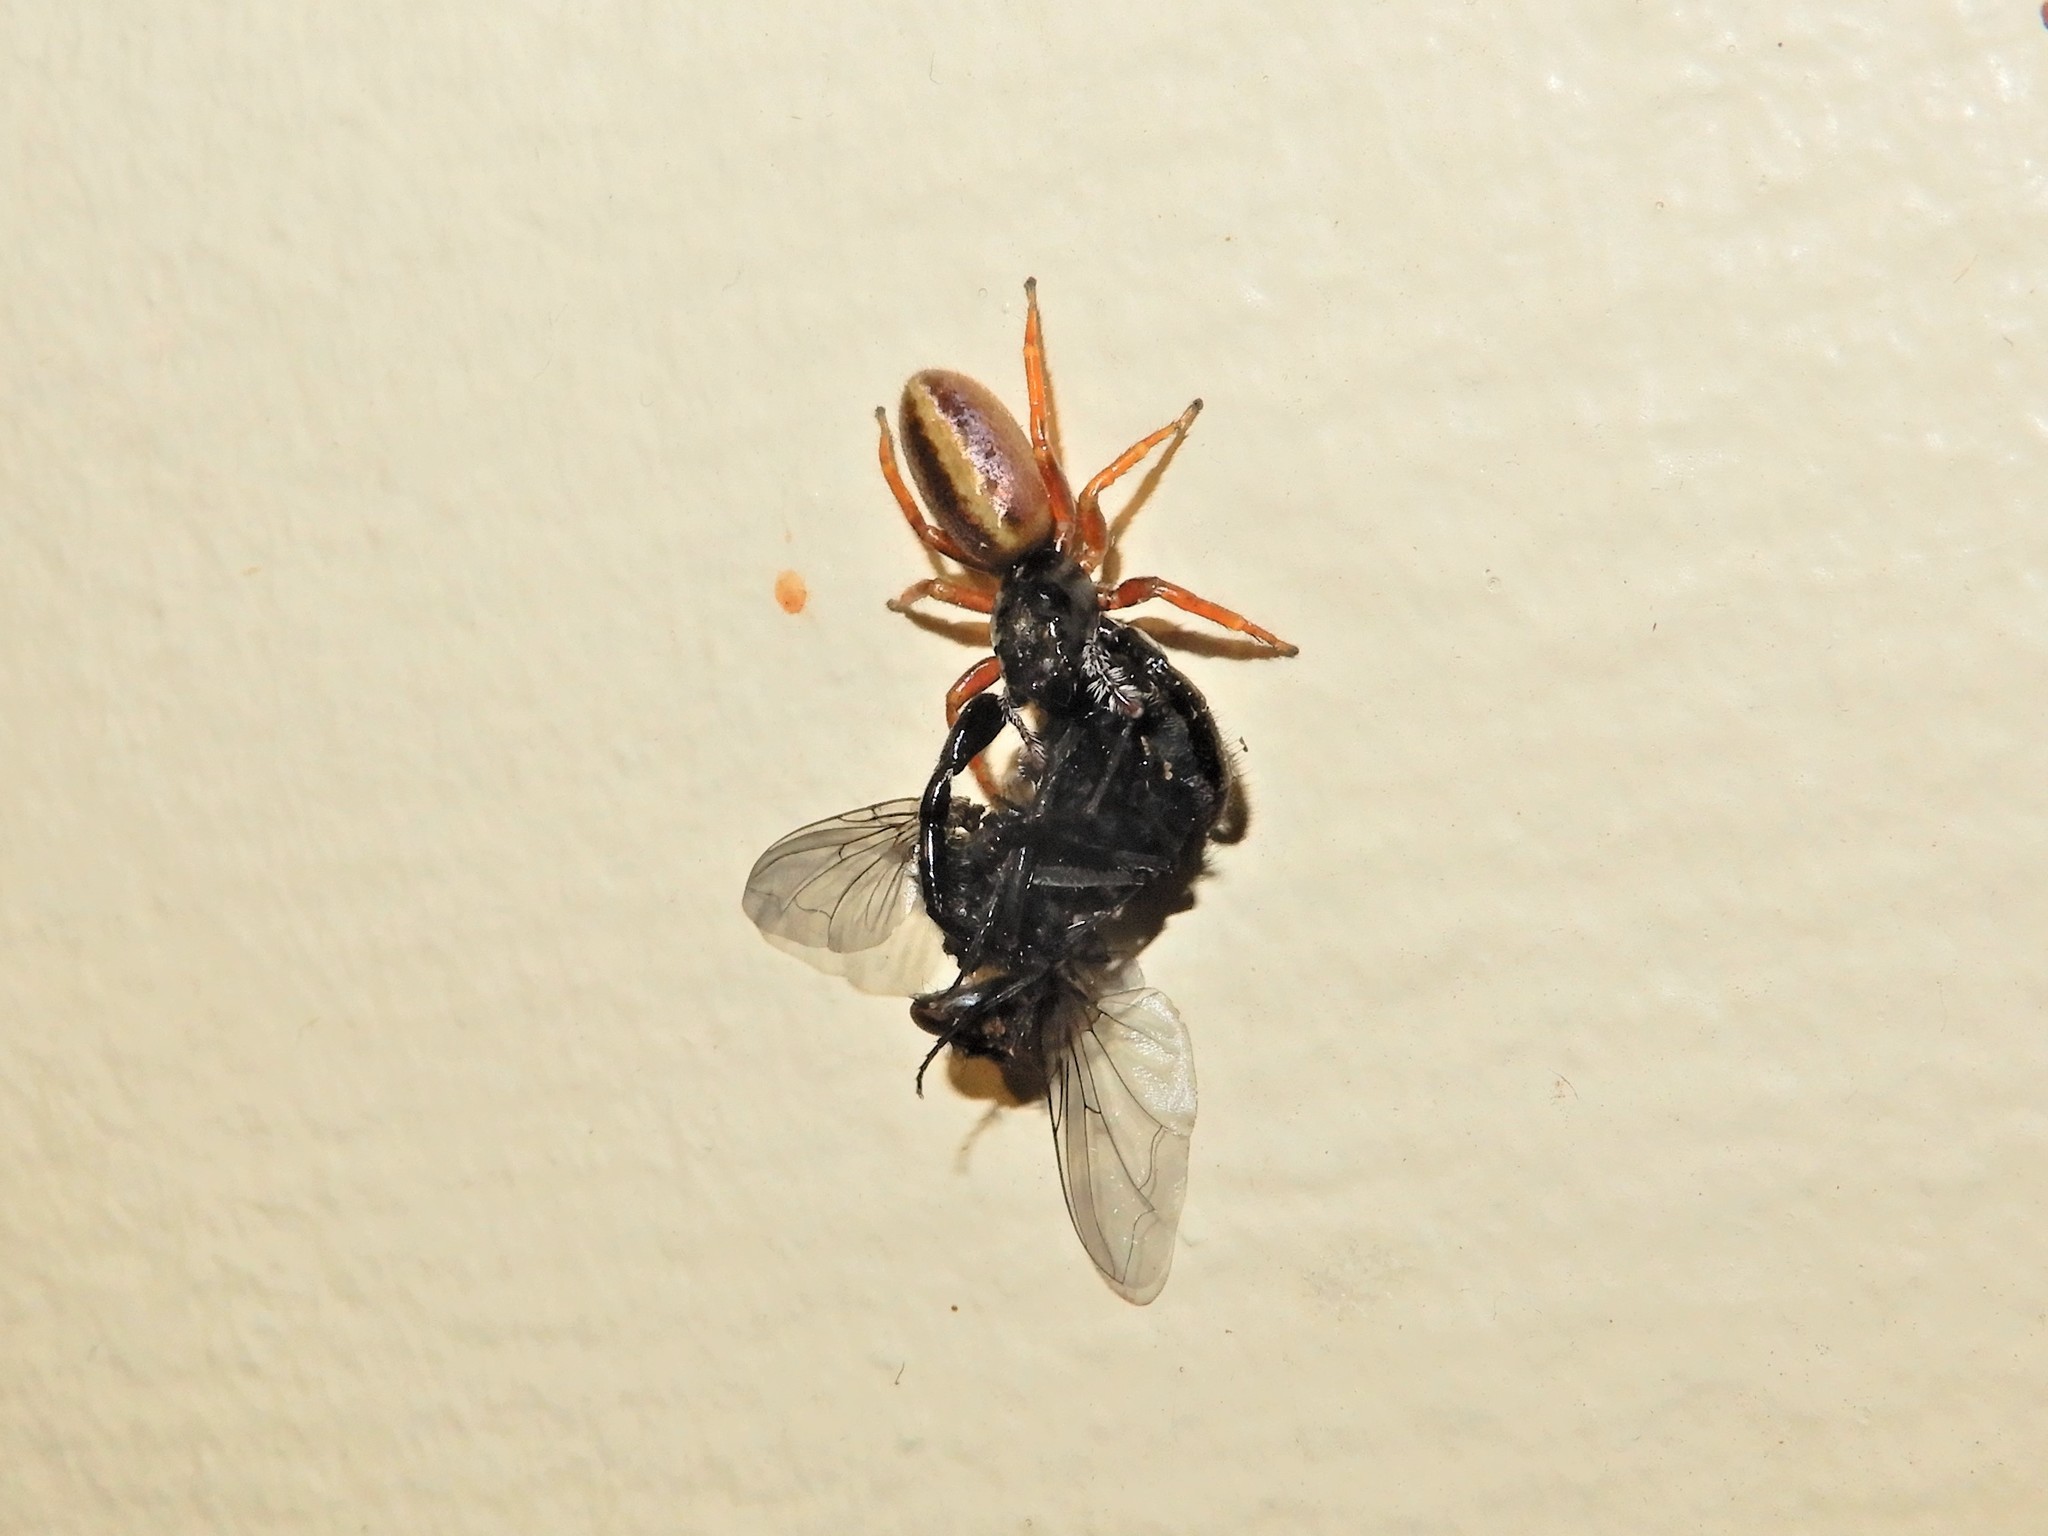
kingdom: Animalia
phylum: Arthropoda
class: Arachnida
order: Araneae
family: Salticidae
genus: Trite
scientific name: Trite planiceps
